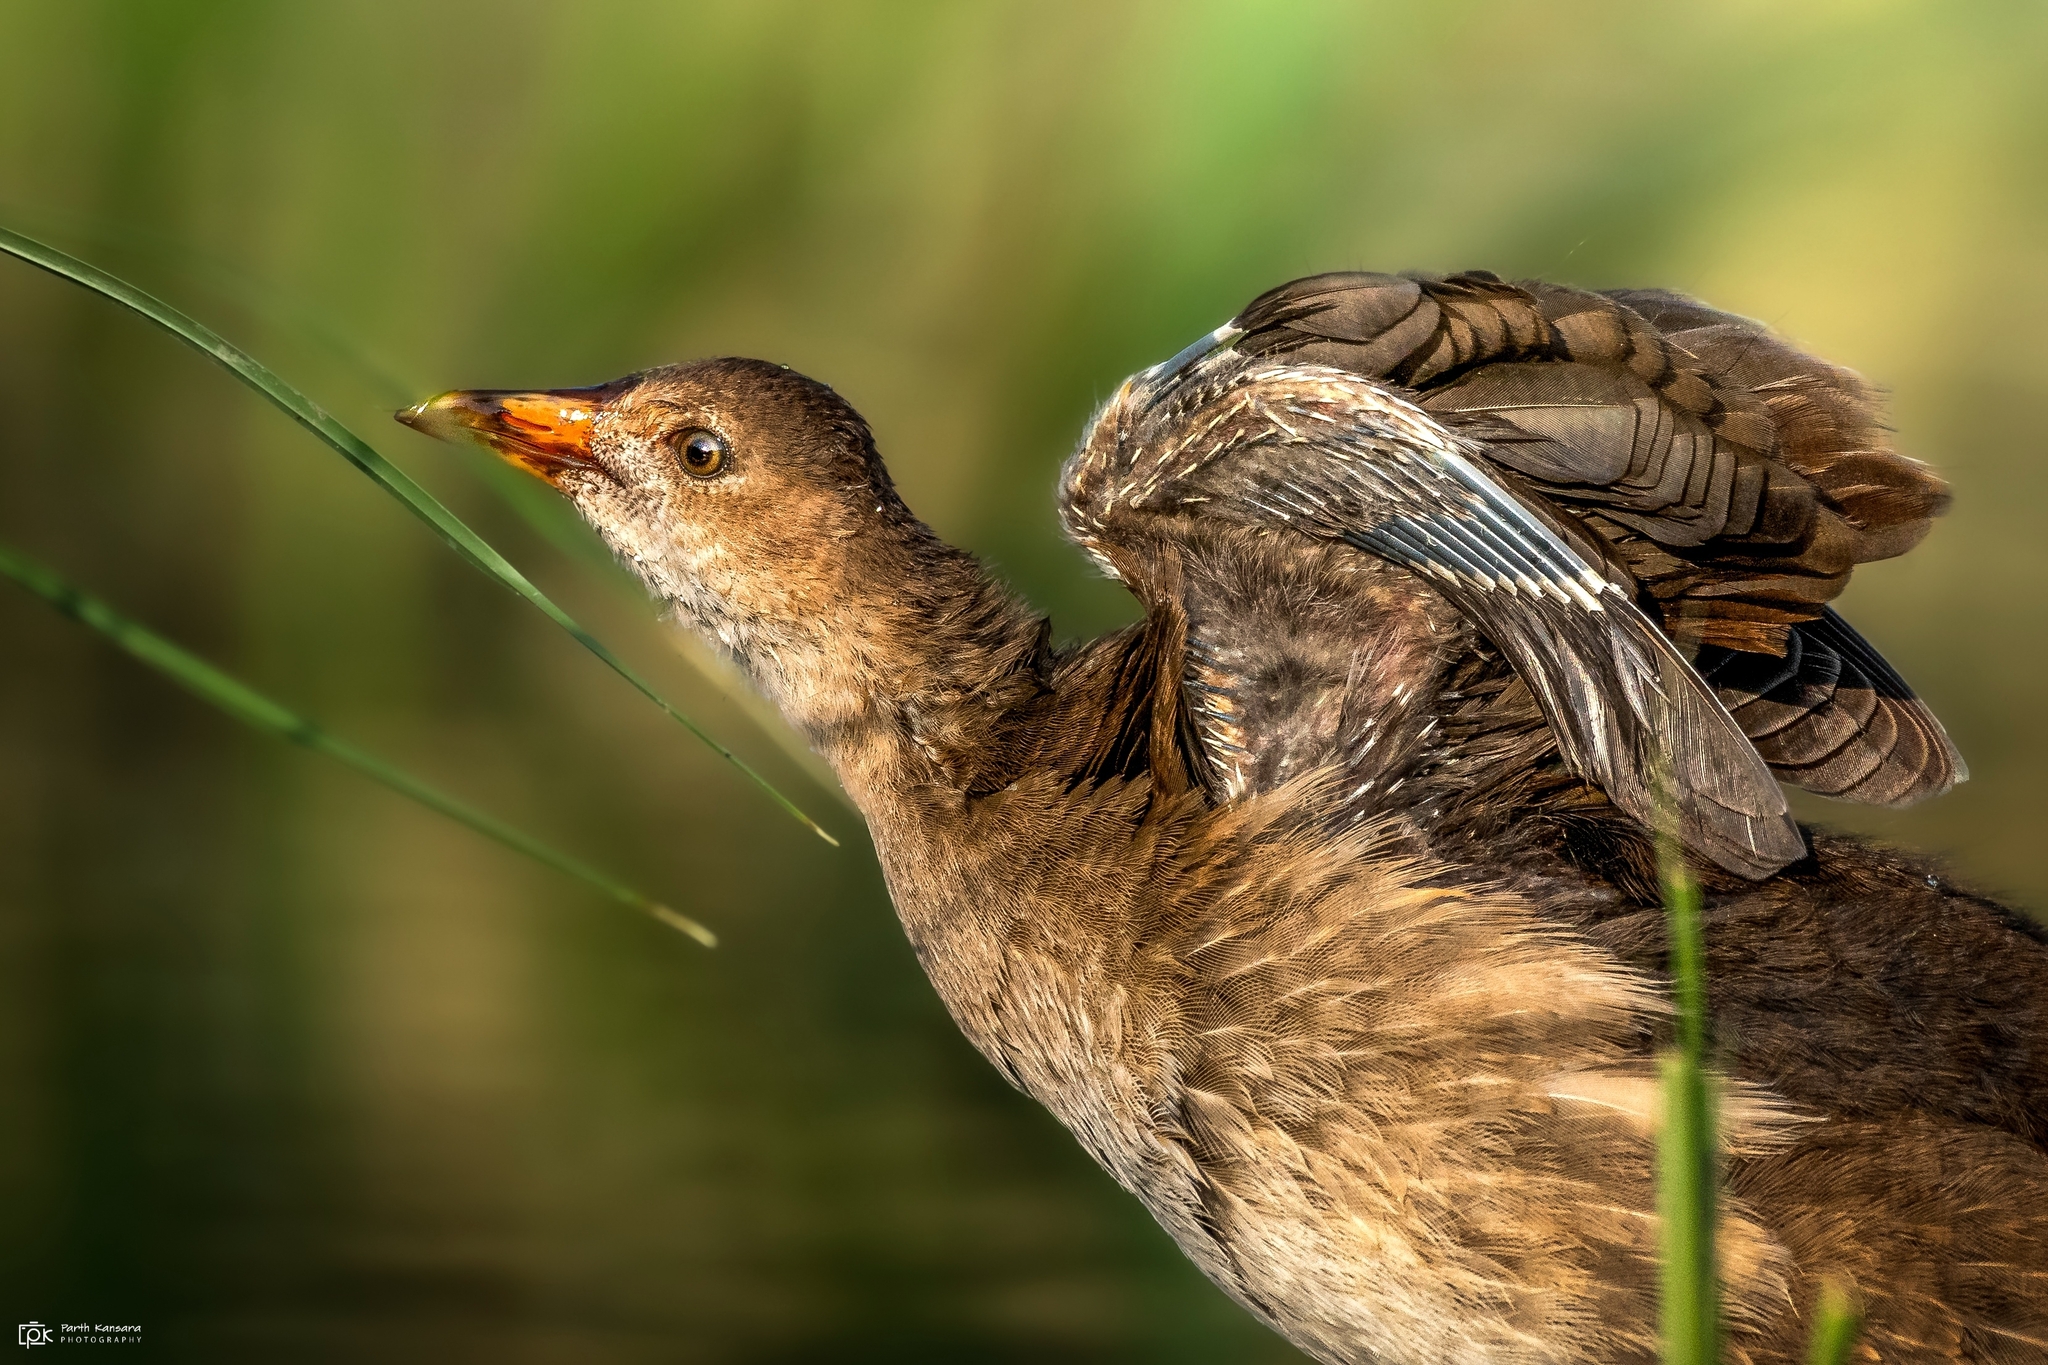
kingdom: Animalia
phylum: Chordata
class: Aves
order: Gruiformes
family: Rallidae
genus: Gallinula
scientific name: Gallinula chloropus
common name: Common moorhen
